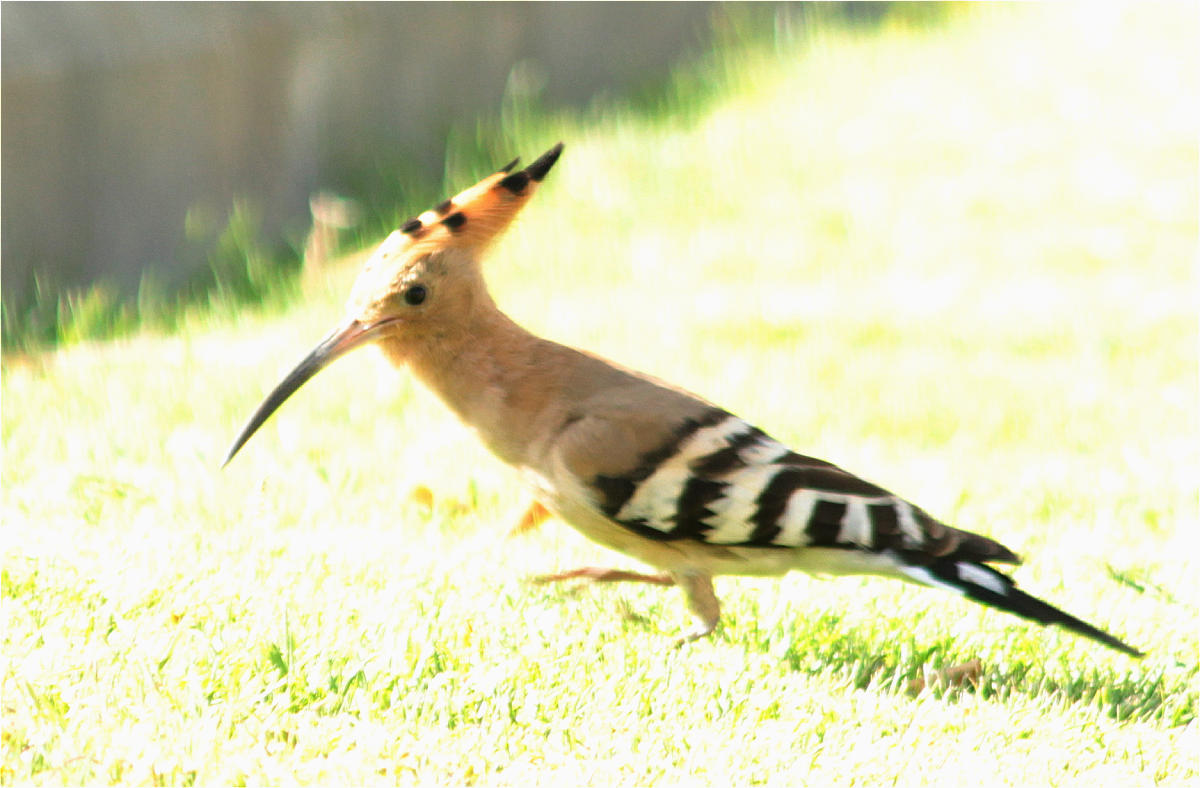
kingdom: Animalia
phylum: Chordata
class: Aves
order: Bucerotiformes
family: Upupidae
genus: Upupa
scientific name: Upupa epops
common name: Eurasian hoopoe
